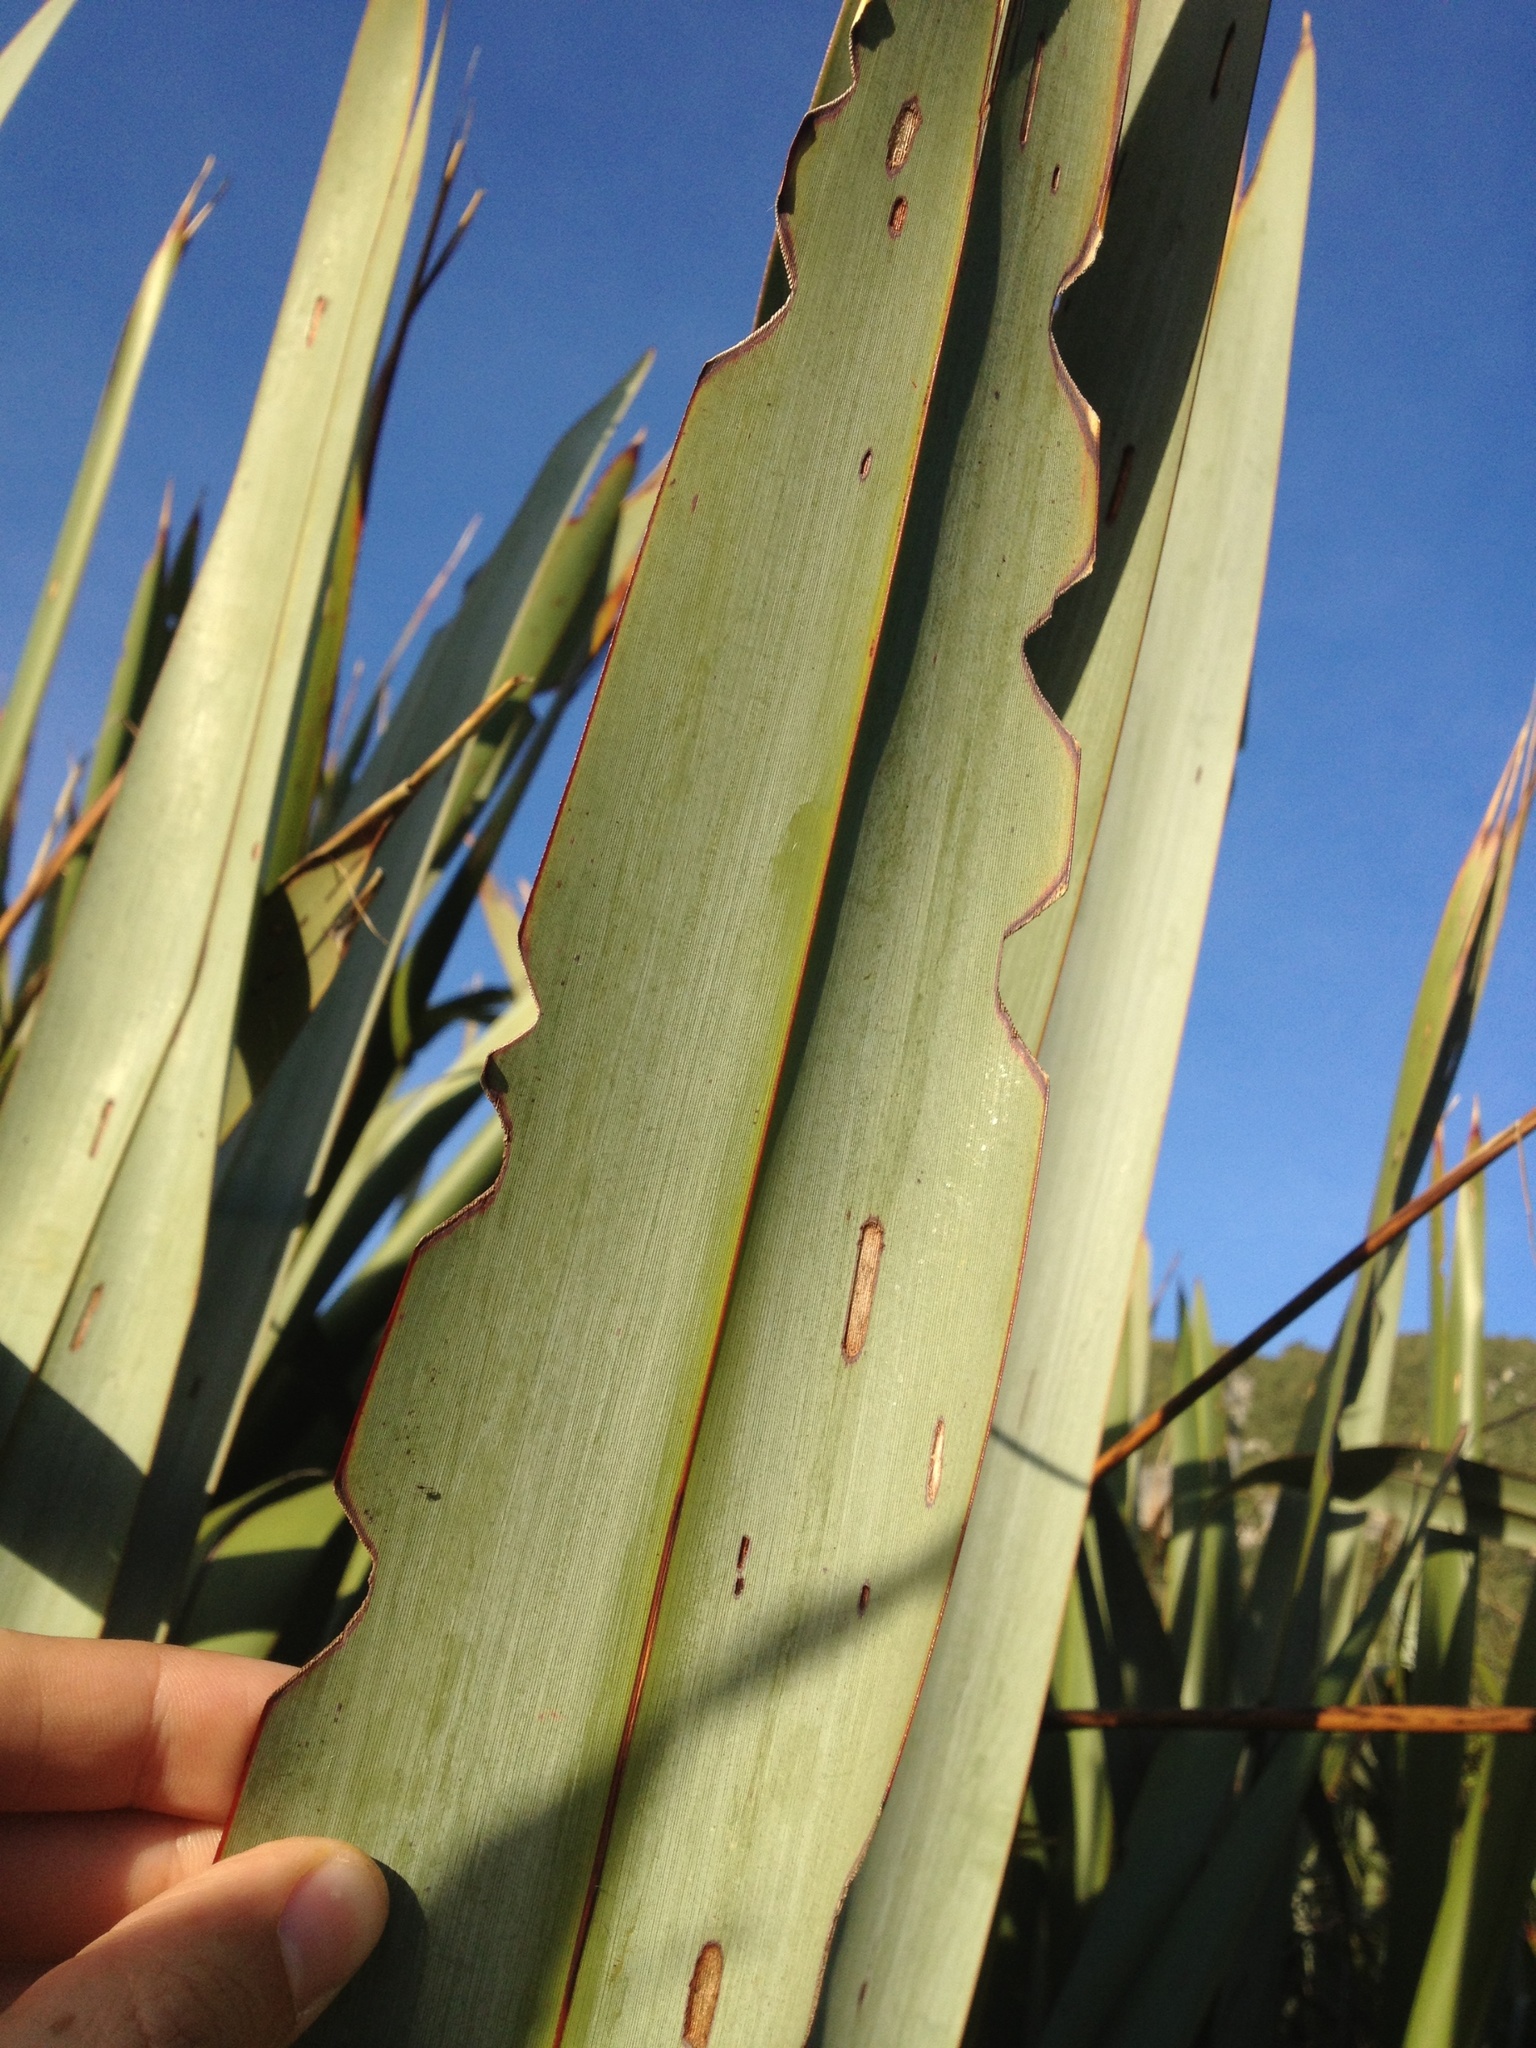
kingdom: Animalia
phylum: Arthropoda
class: Insecta
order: Lepidoptera
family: Noctuidae
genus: Ichneutica
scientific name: Ichneutica
